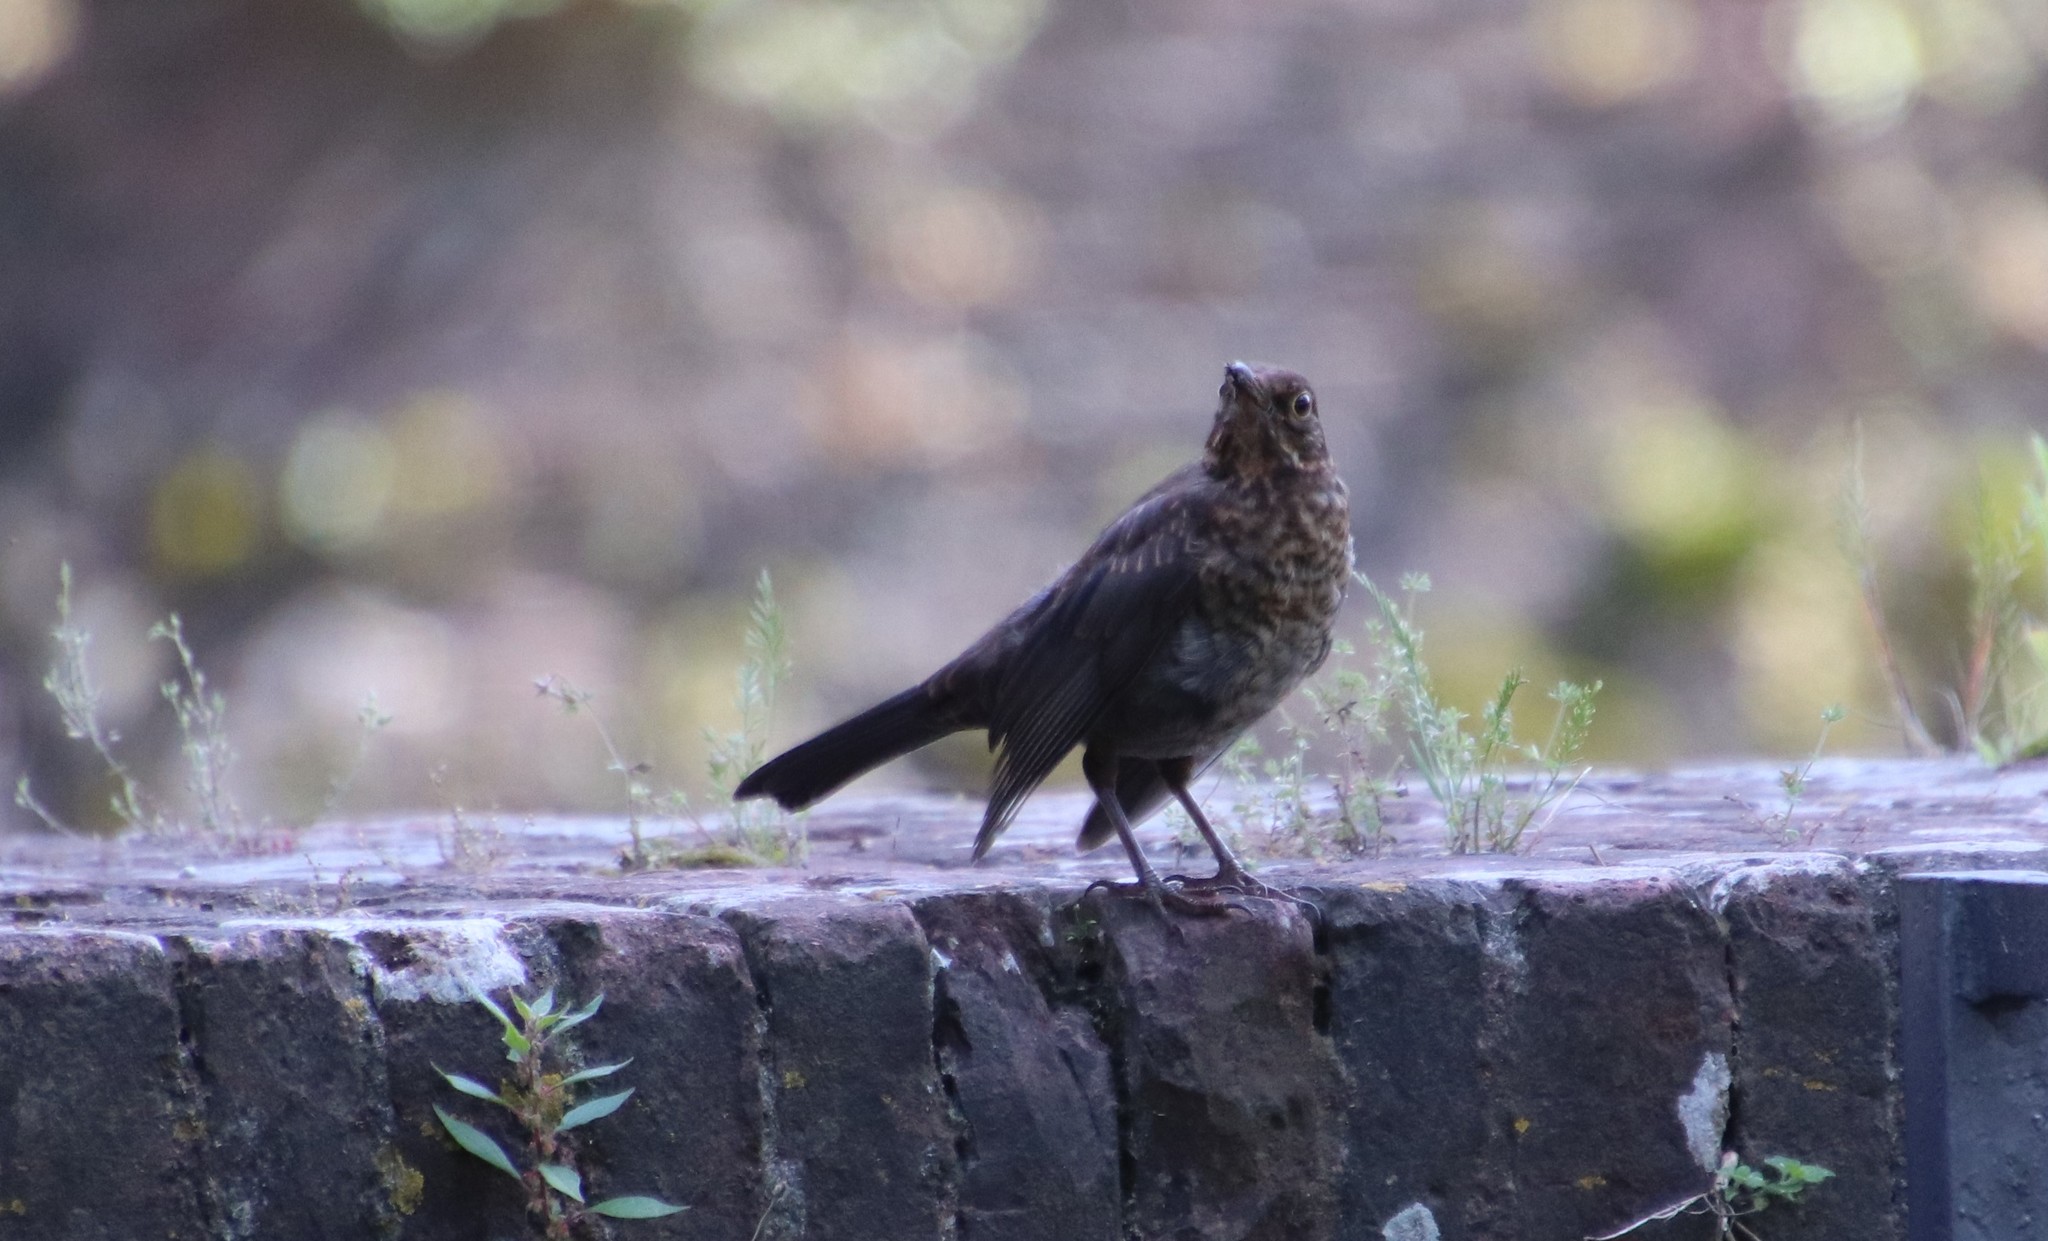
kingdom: Animalia
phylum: Chordata
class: Aves
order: Passeriformes
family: Turdidae
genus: Turdus
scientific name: Turdus merula
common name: Common blackbird
